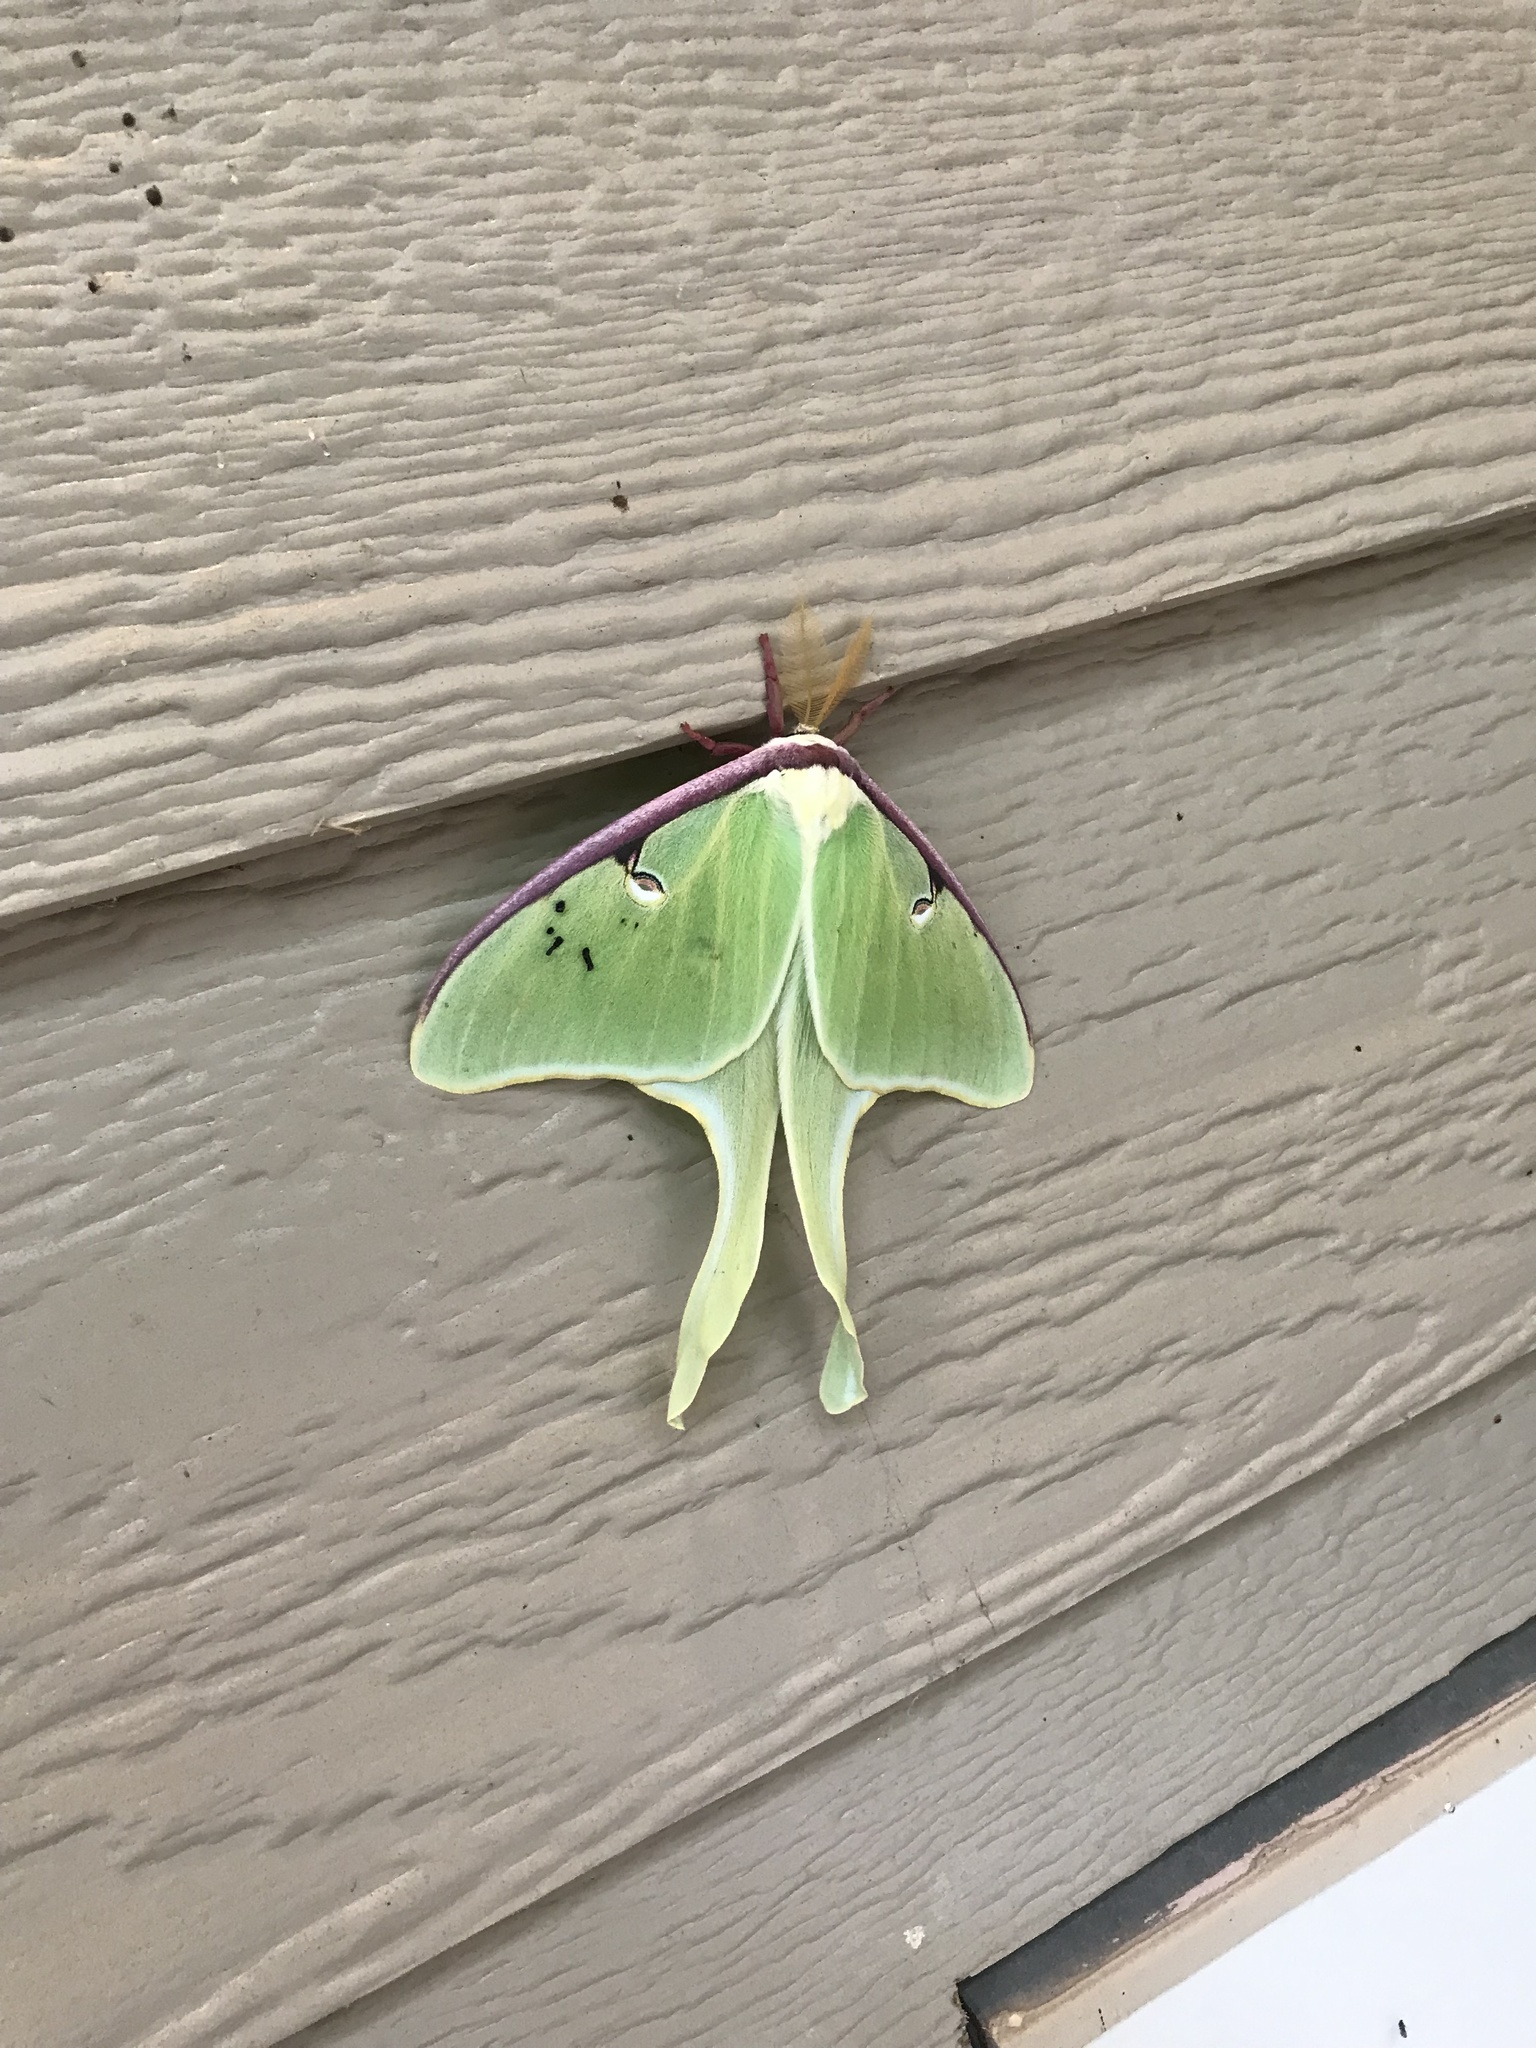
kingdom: Animalia
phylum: Arthropoda
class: Insecta
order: Lepidoptera
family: Saturniidae
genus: Actias
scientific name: Actias luna
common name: Luna moth
